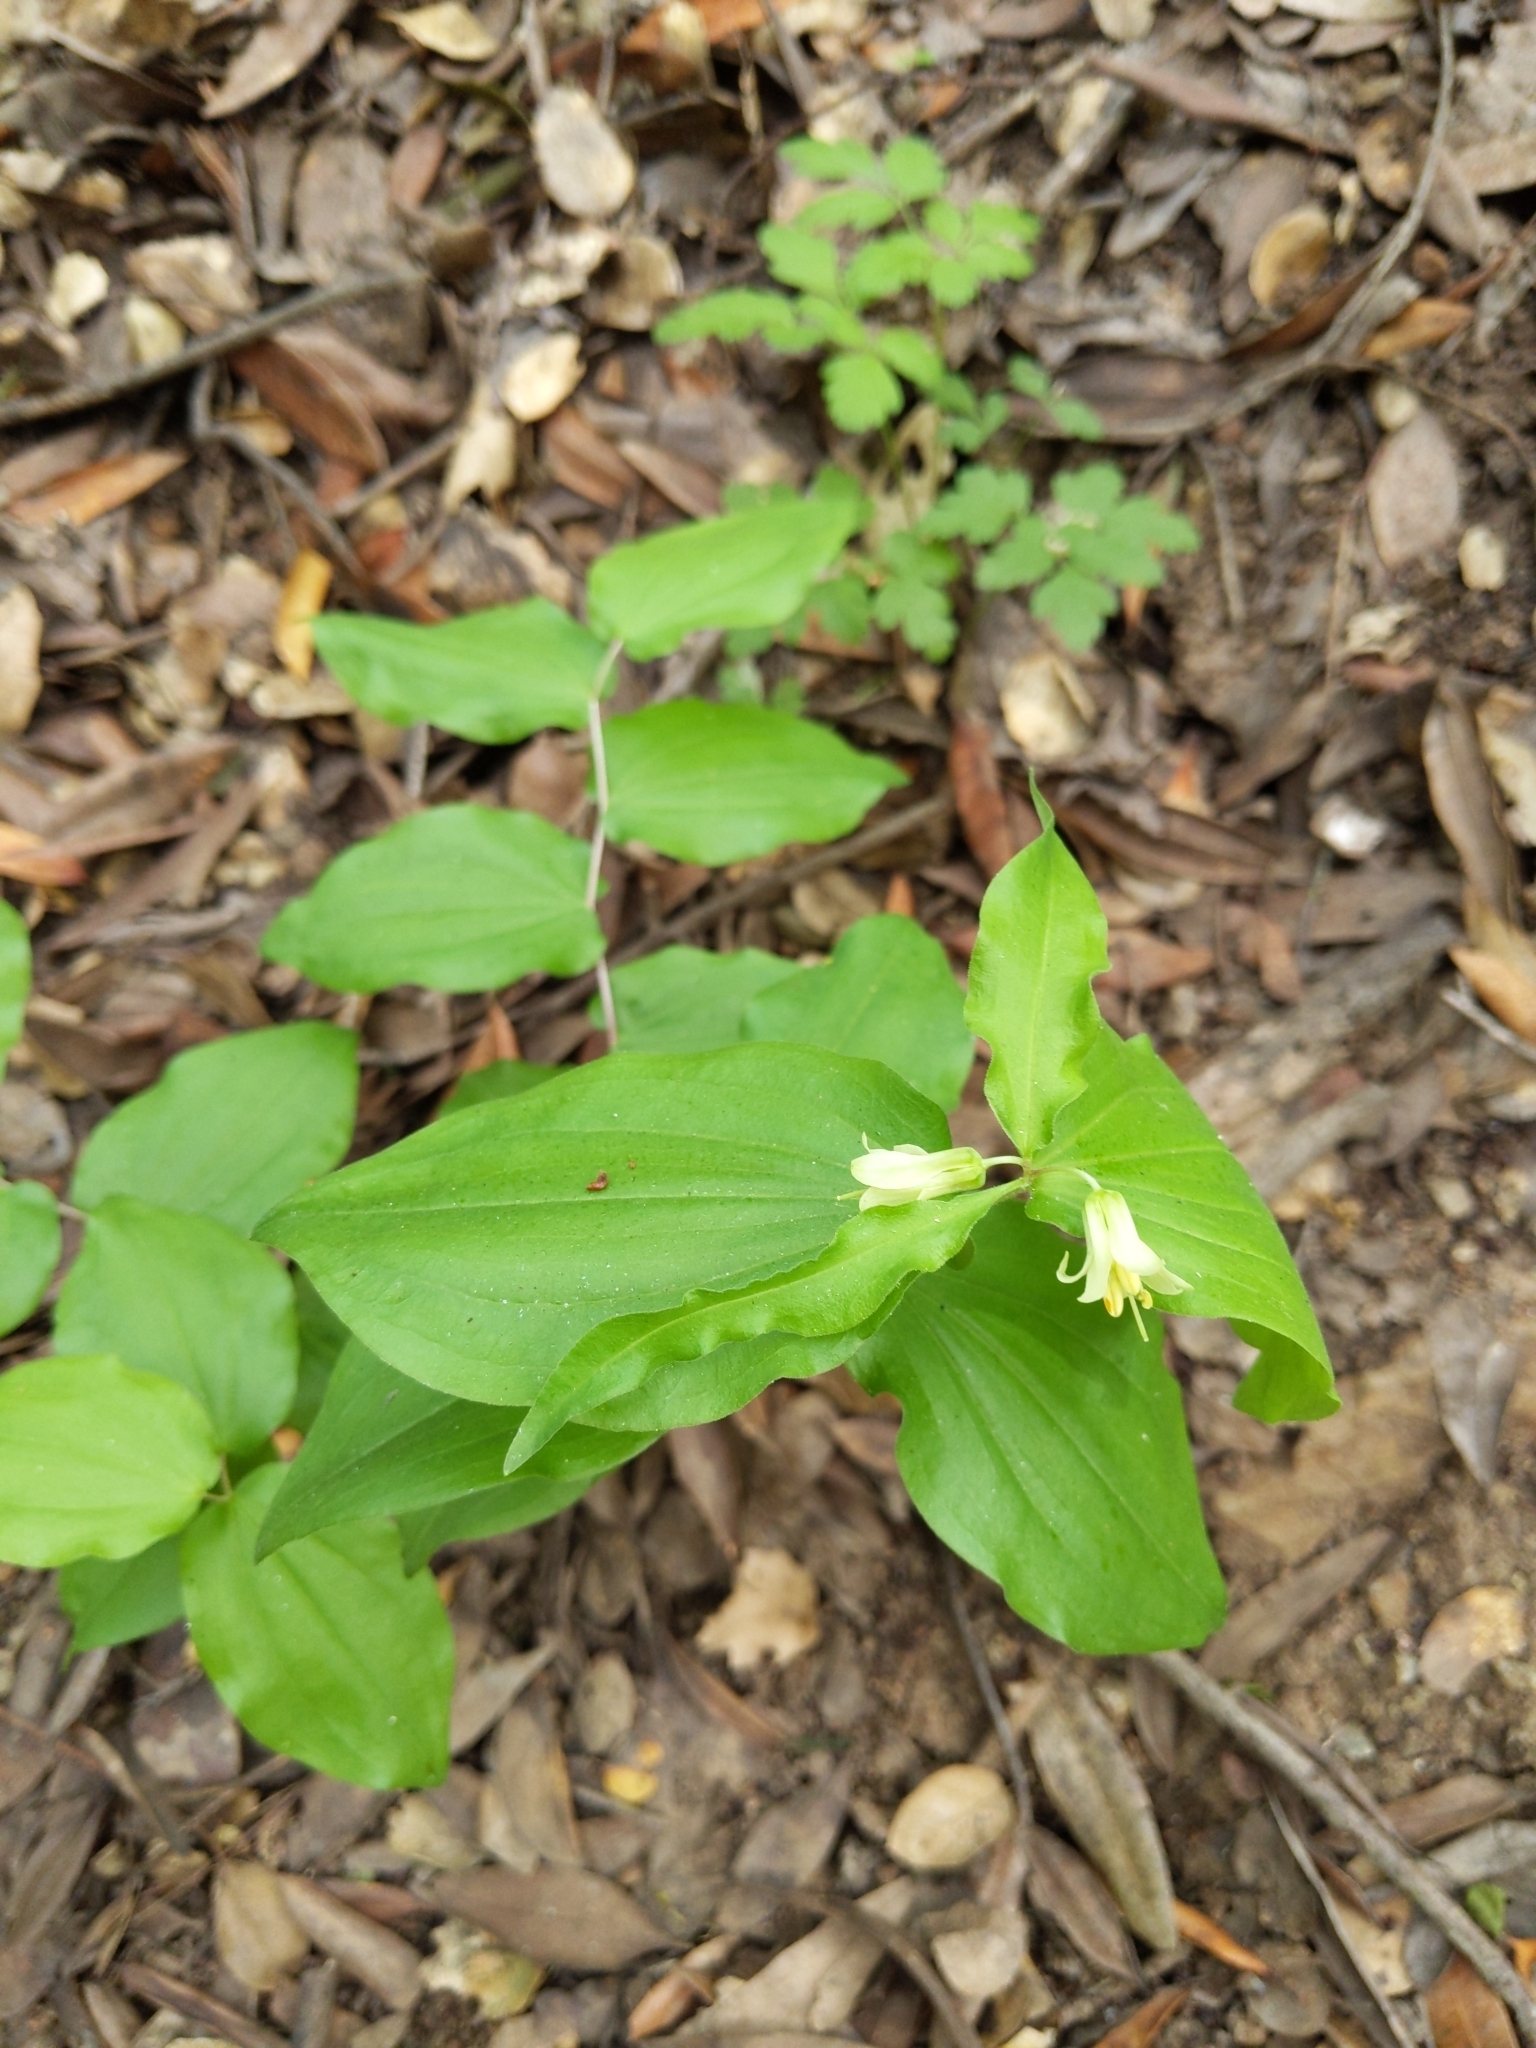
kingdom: Plantae
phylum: Tracheophyta
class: Liliopsida
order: Liliales
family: Liliaceae
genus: Prosartes
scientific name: Prosartes hookeri
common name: Fairy-bells
